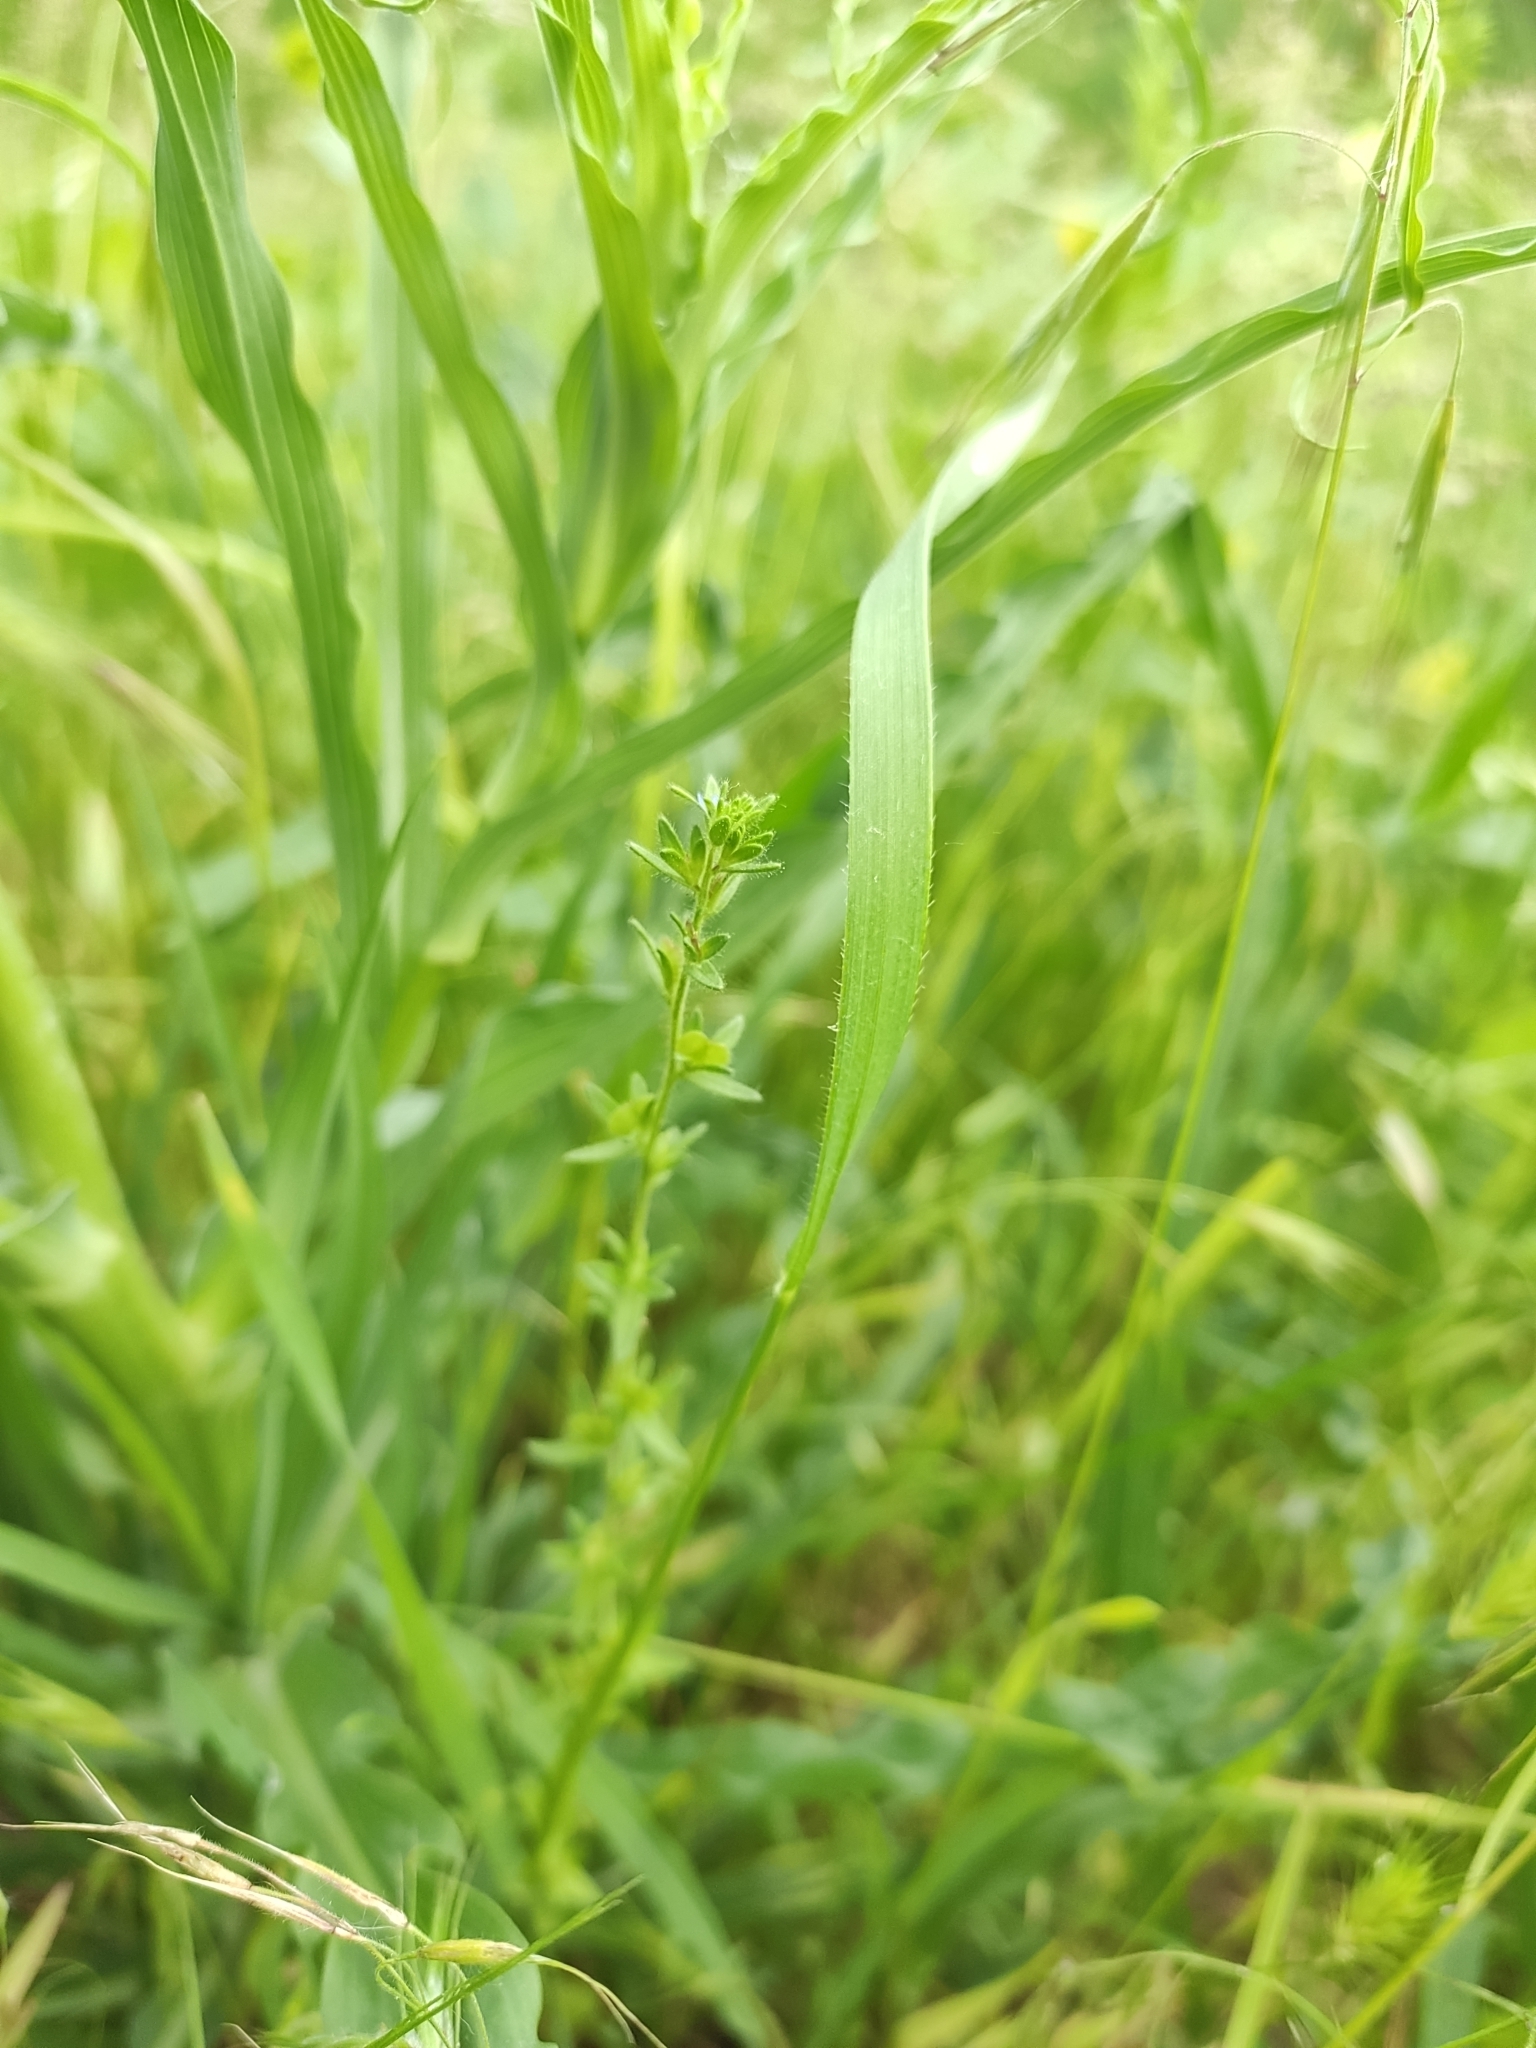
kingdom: Plantae
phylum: Tracheophyta
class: Magnoliopsida
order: Lamiales
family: Plantaginaceae
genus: Veronica
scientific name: Veronica arvensis
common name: Corn speedwell
